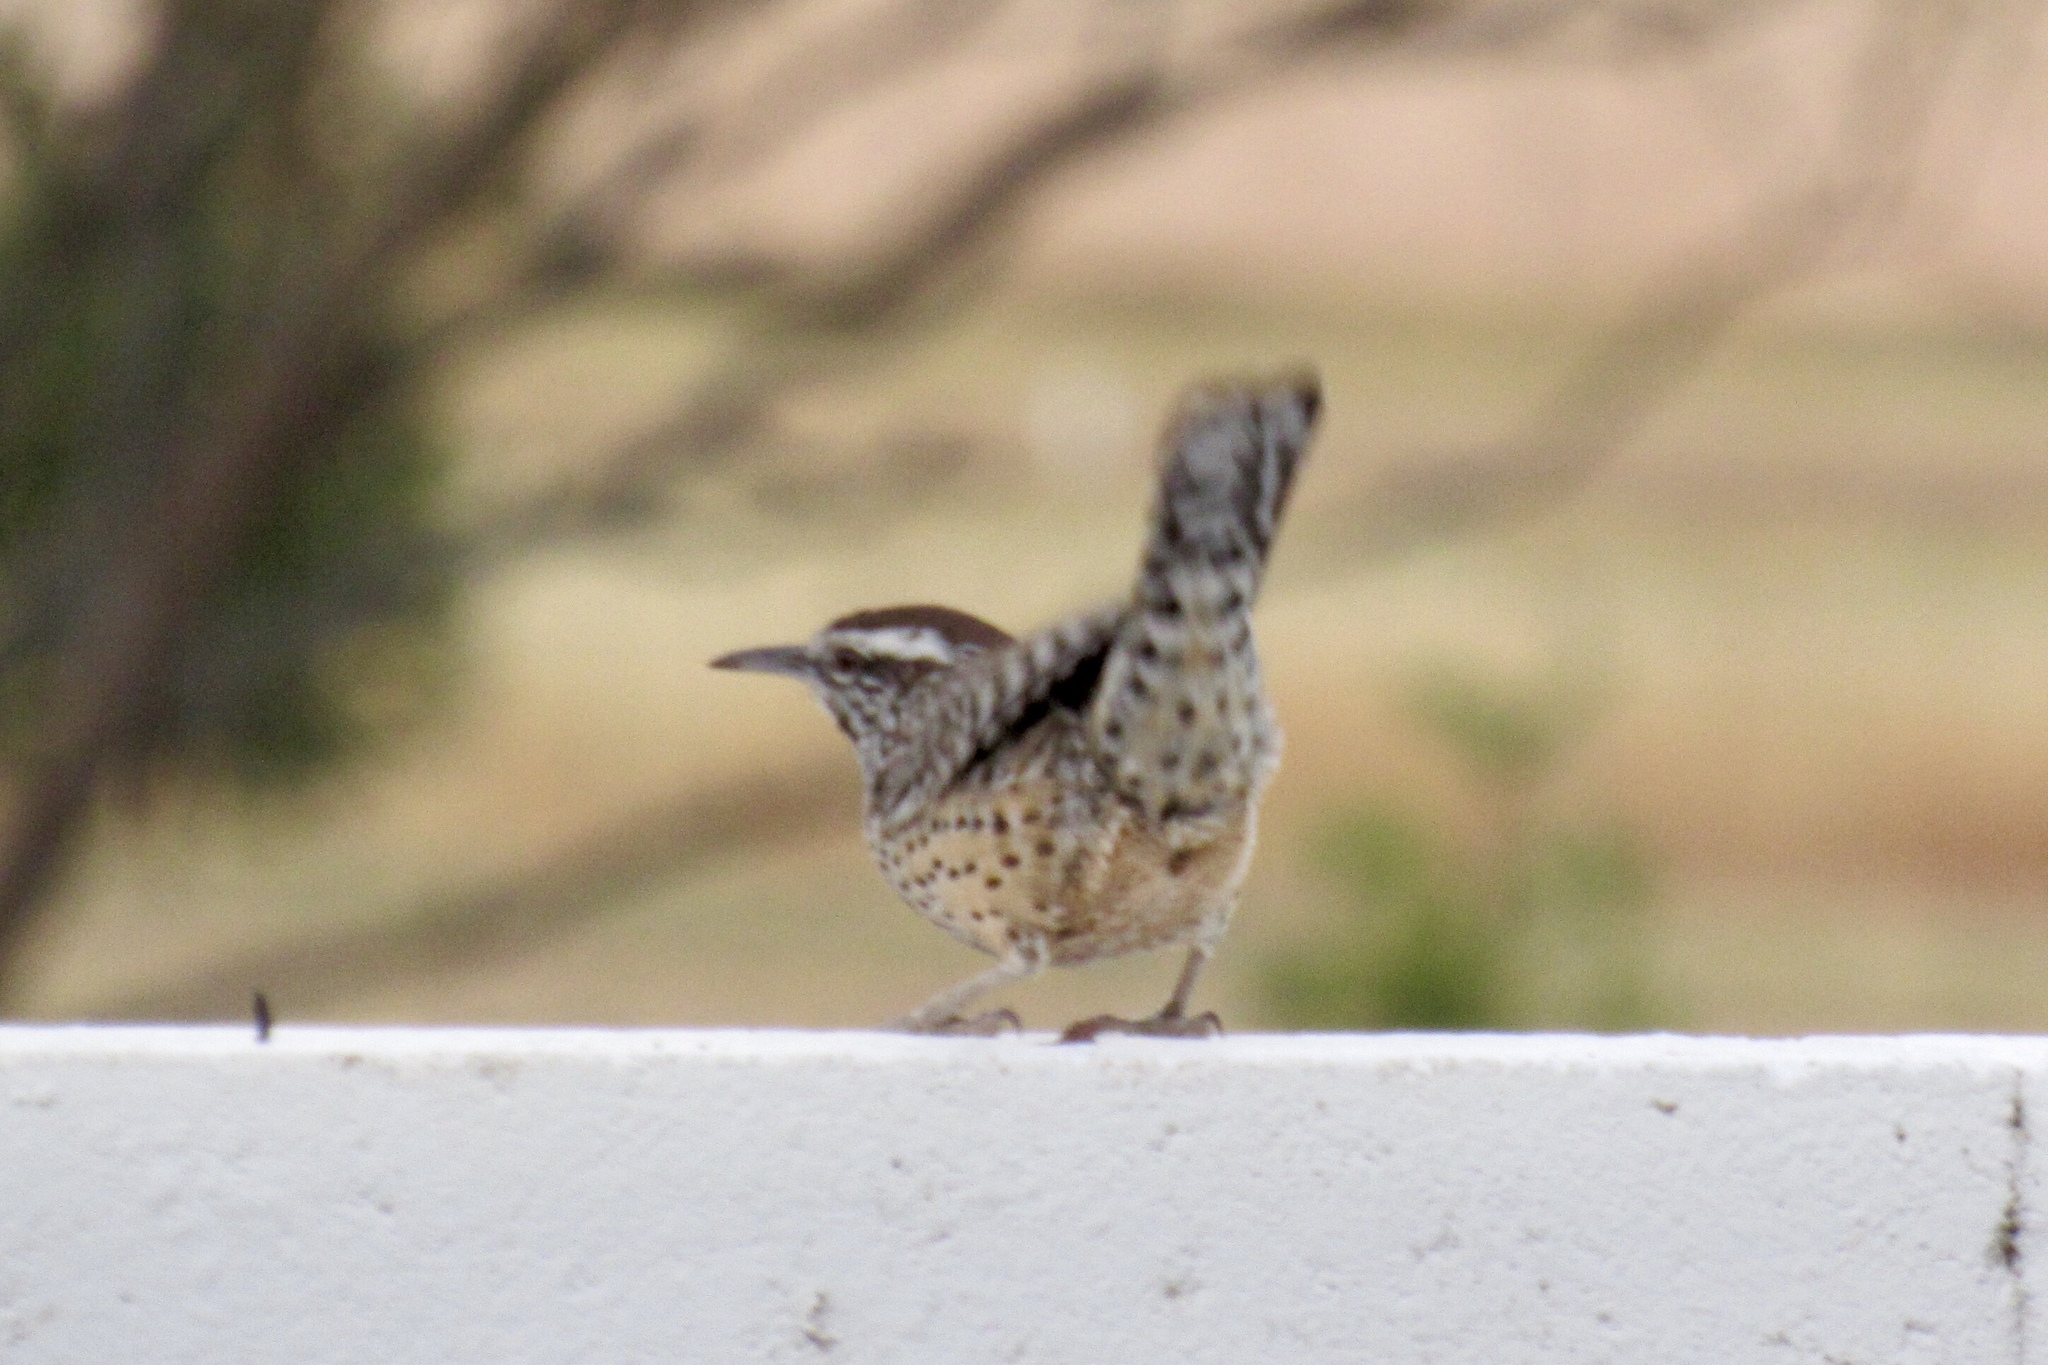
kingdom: Animalia
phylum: Chordata
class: Aves
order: Passeriformes
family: Troglodytidae
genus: Campylorhynchus
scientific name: Campylorhynchus brunneicapillus
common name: Cactus wren
